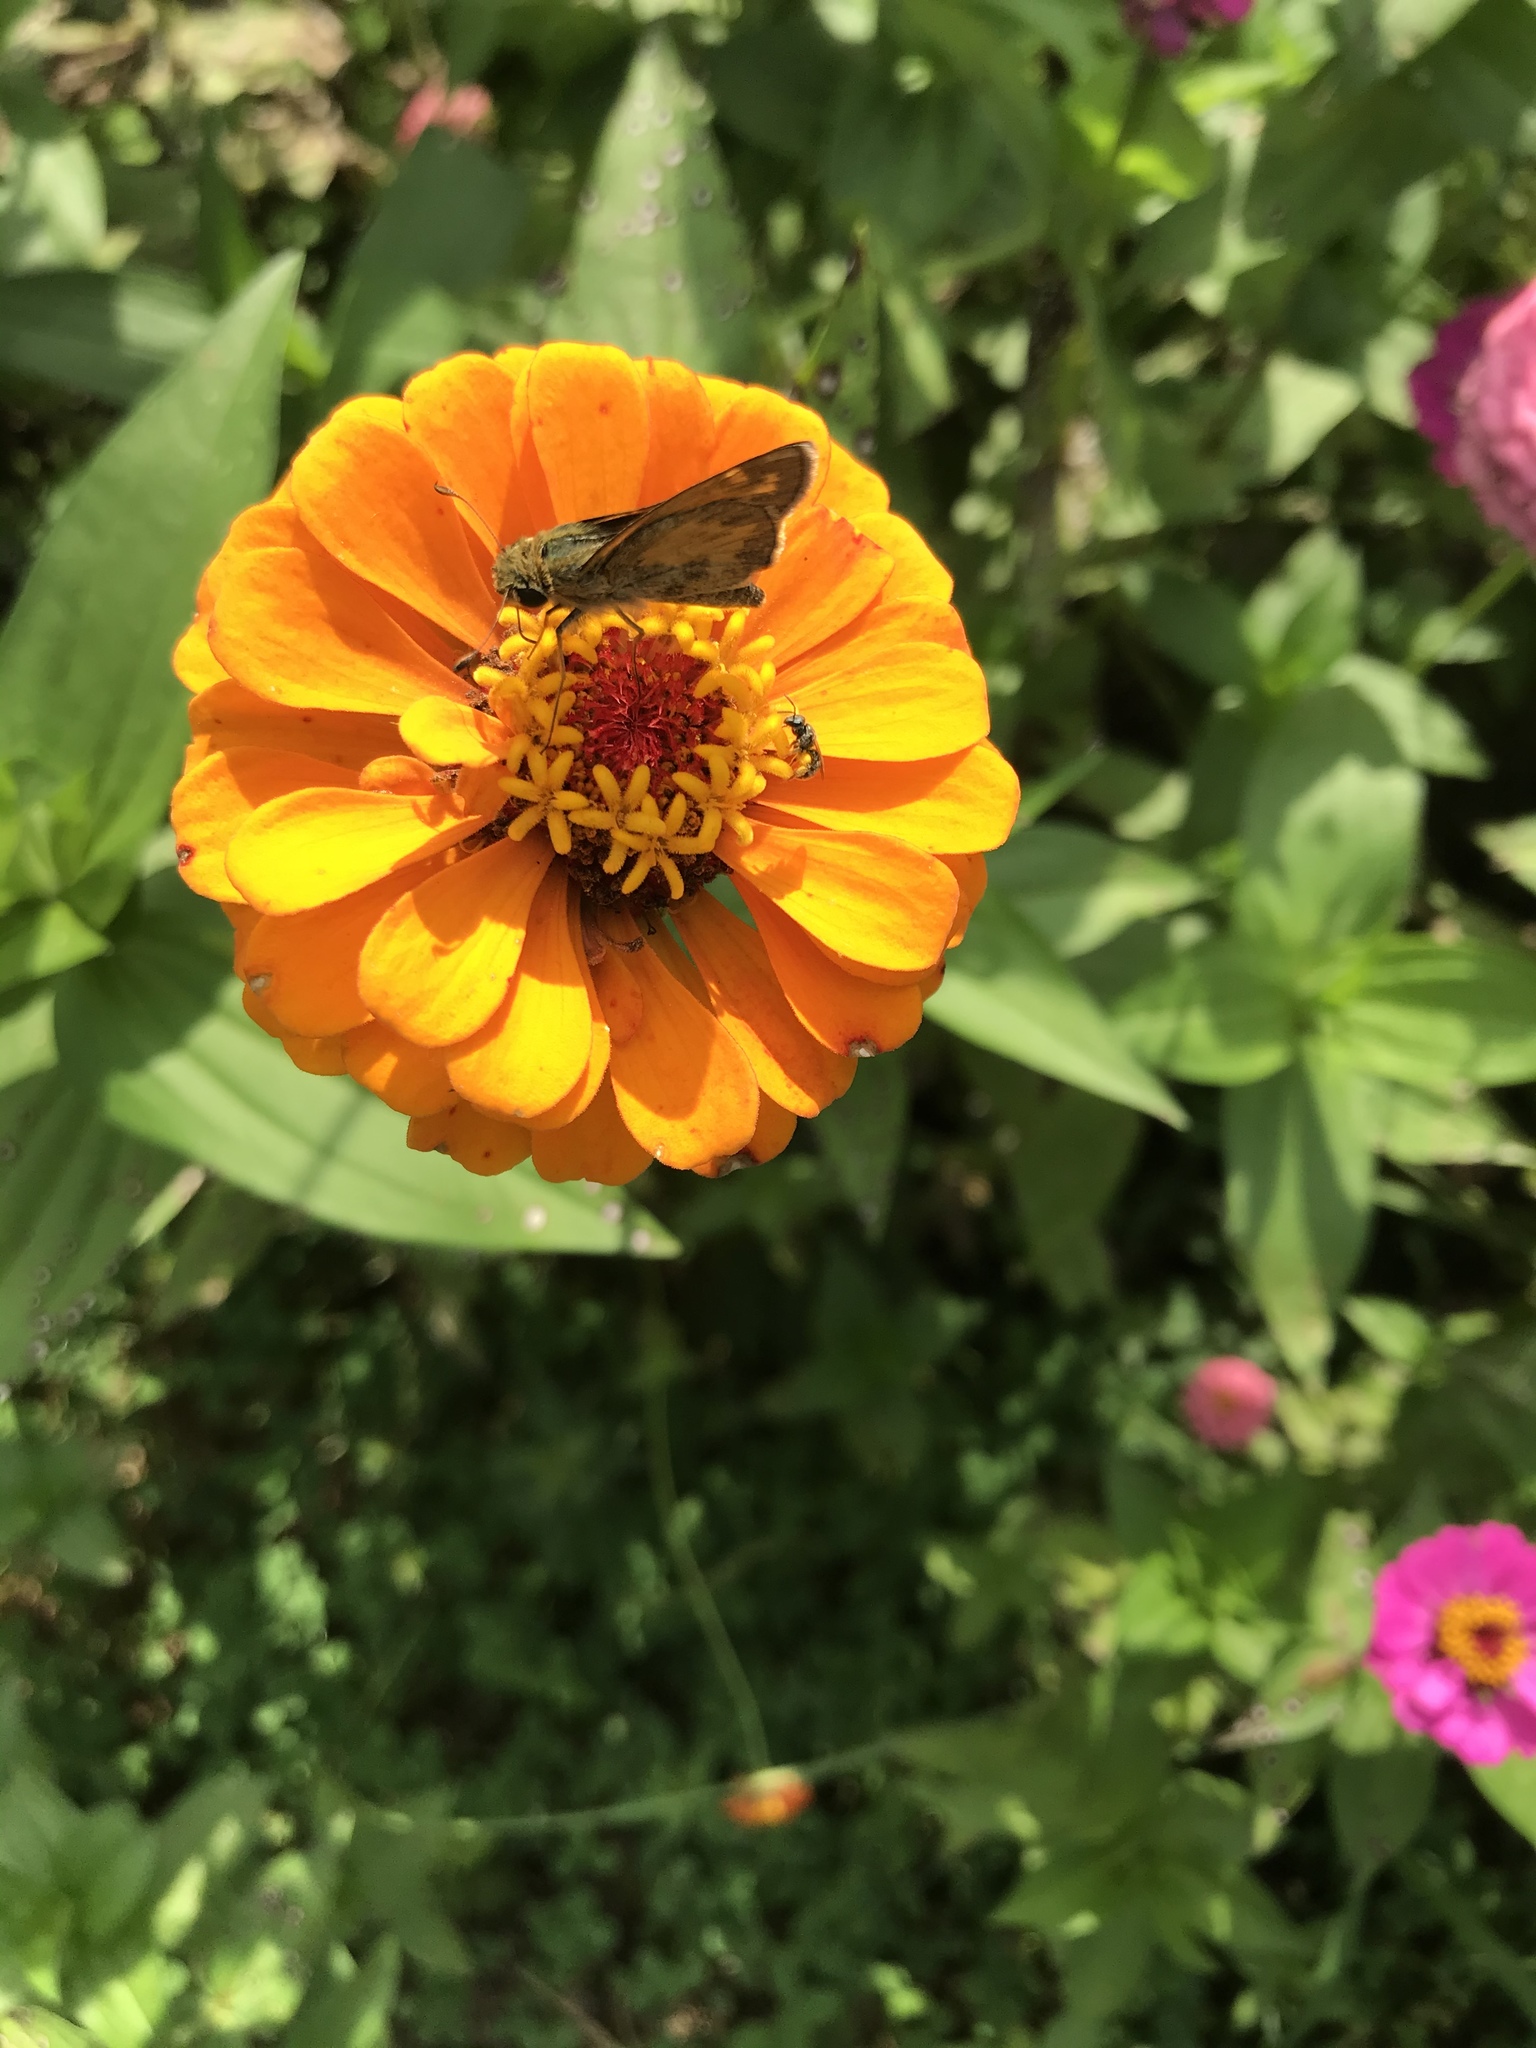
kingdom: Animalia
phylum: Arthropoda
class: Insecta
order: Lepidoptera
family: Hesperiidae
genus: Atalopedes
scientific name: Atalopedes
